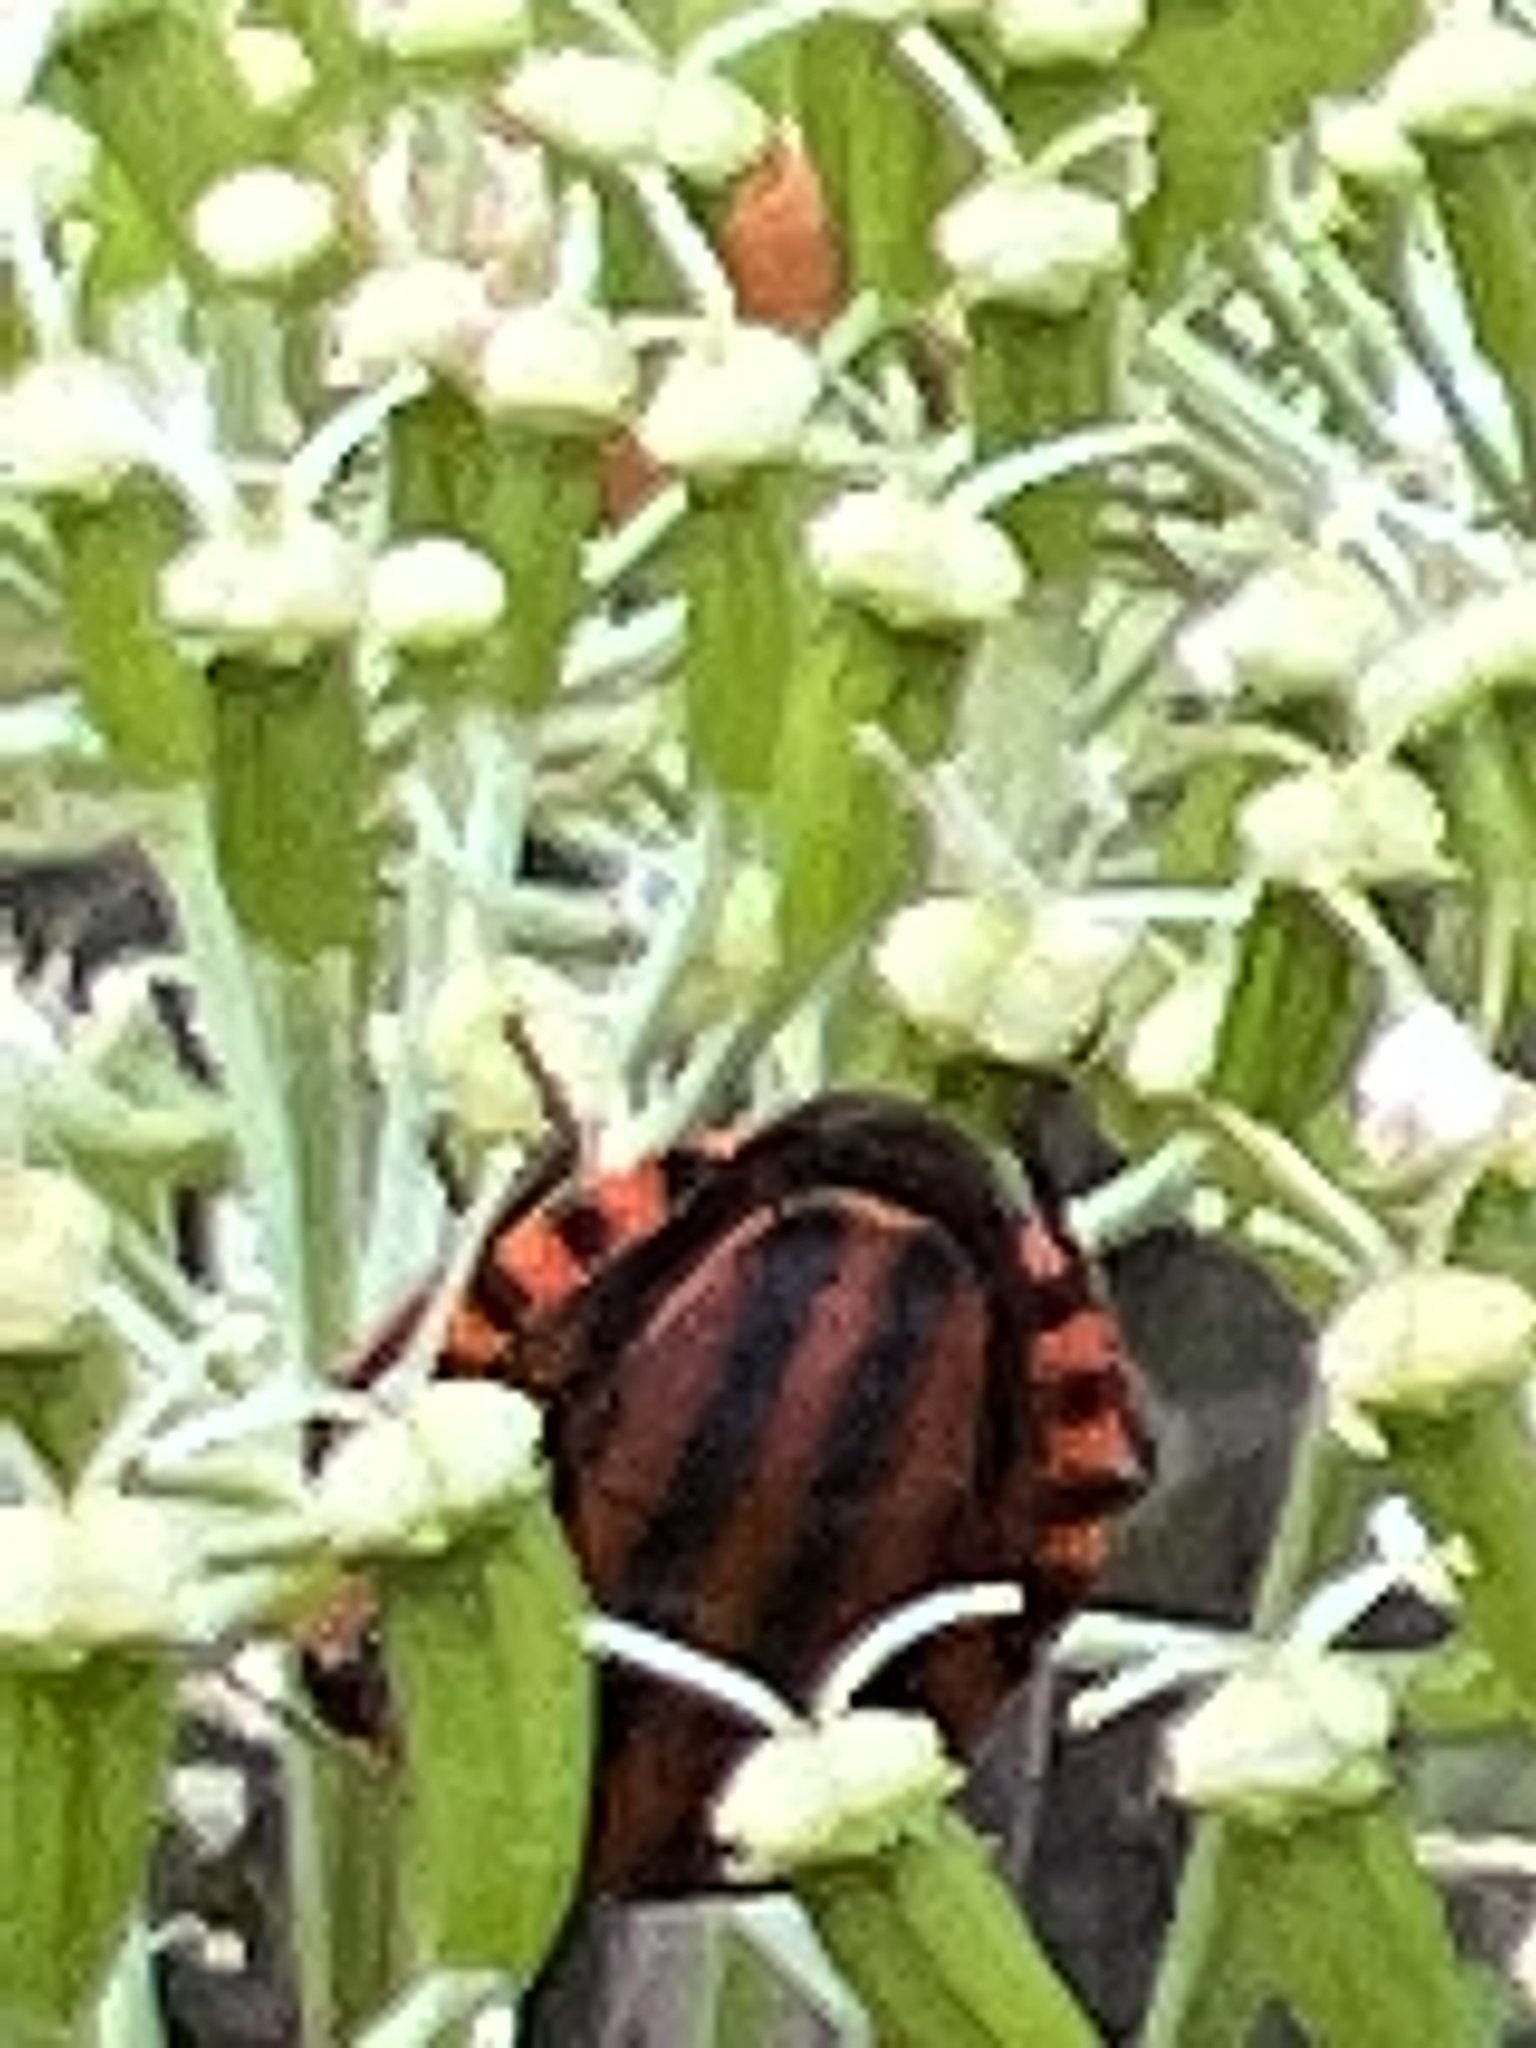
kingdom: Animalia
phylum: Arthropoda
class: Insecta
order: Hemiptera
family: Pentatomidae
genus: Graphosoma
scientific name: Graphosoma italicum
